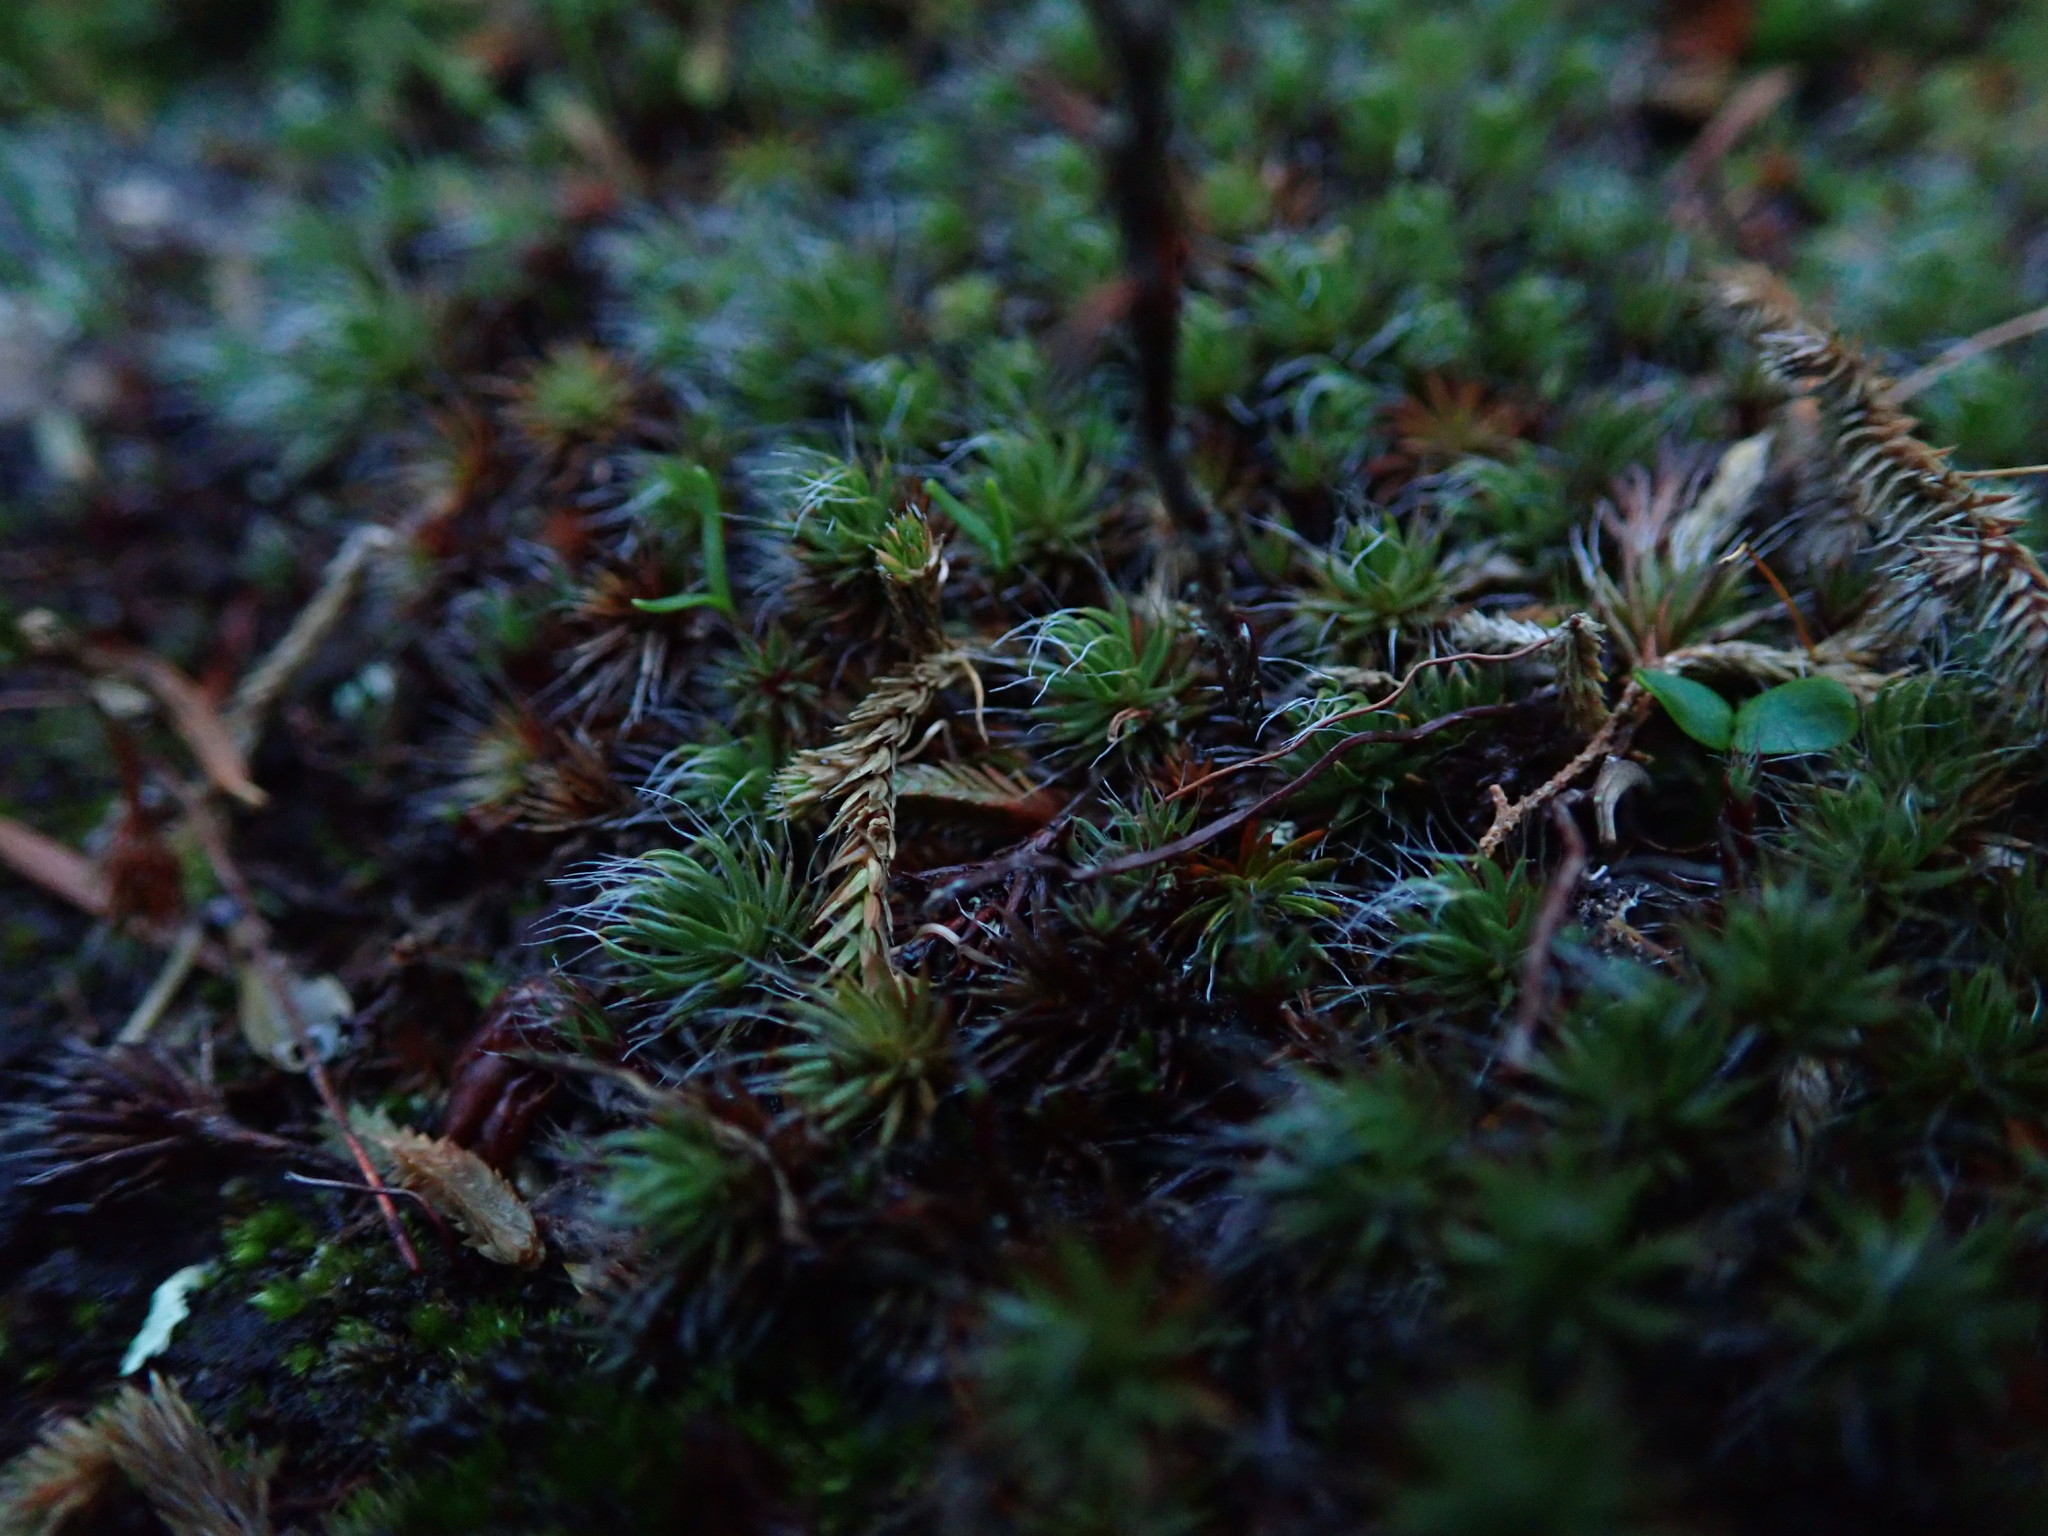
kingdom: Plantae
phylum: Bryophyta
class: Polytrichopsida
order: Polytrichales
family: Polytrichaceae
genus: Polytrichum
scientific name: Polytrichum piliferum
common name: Bristly haircap
